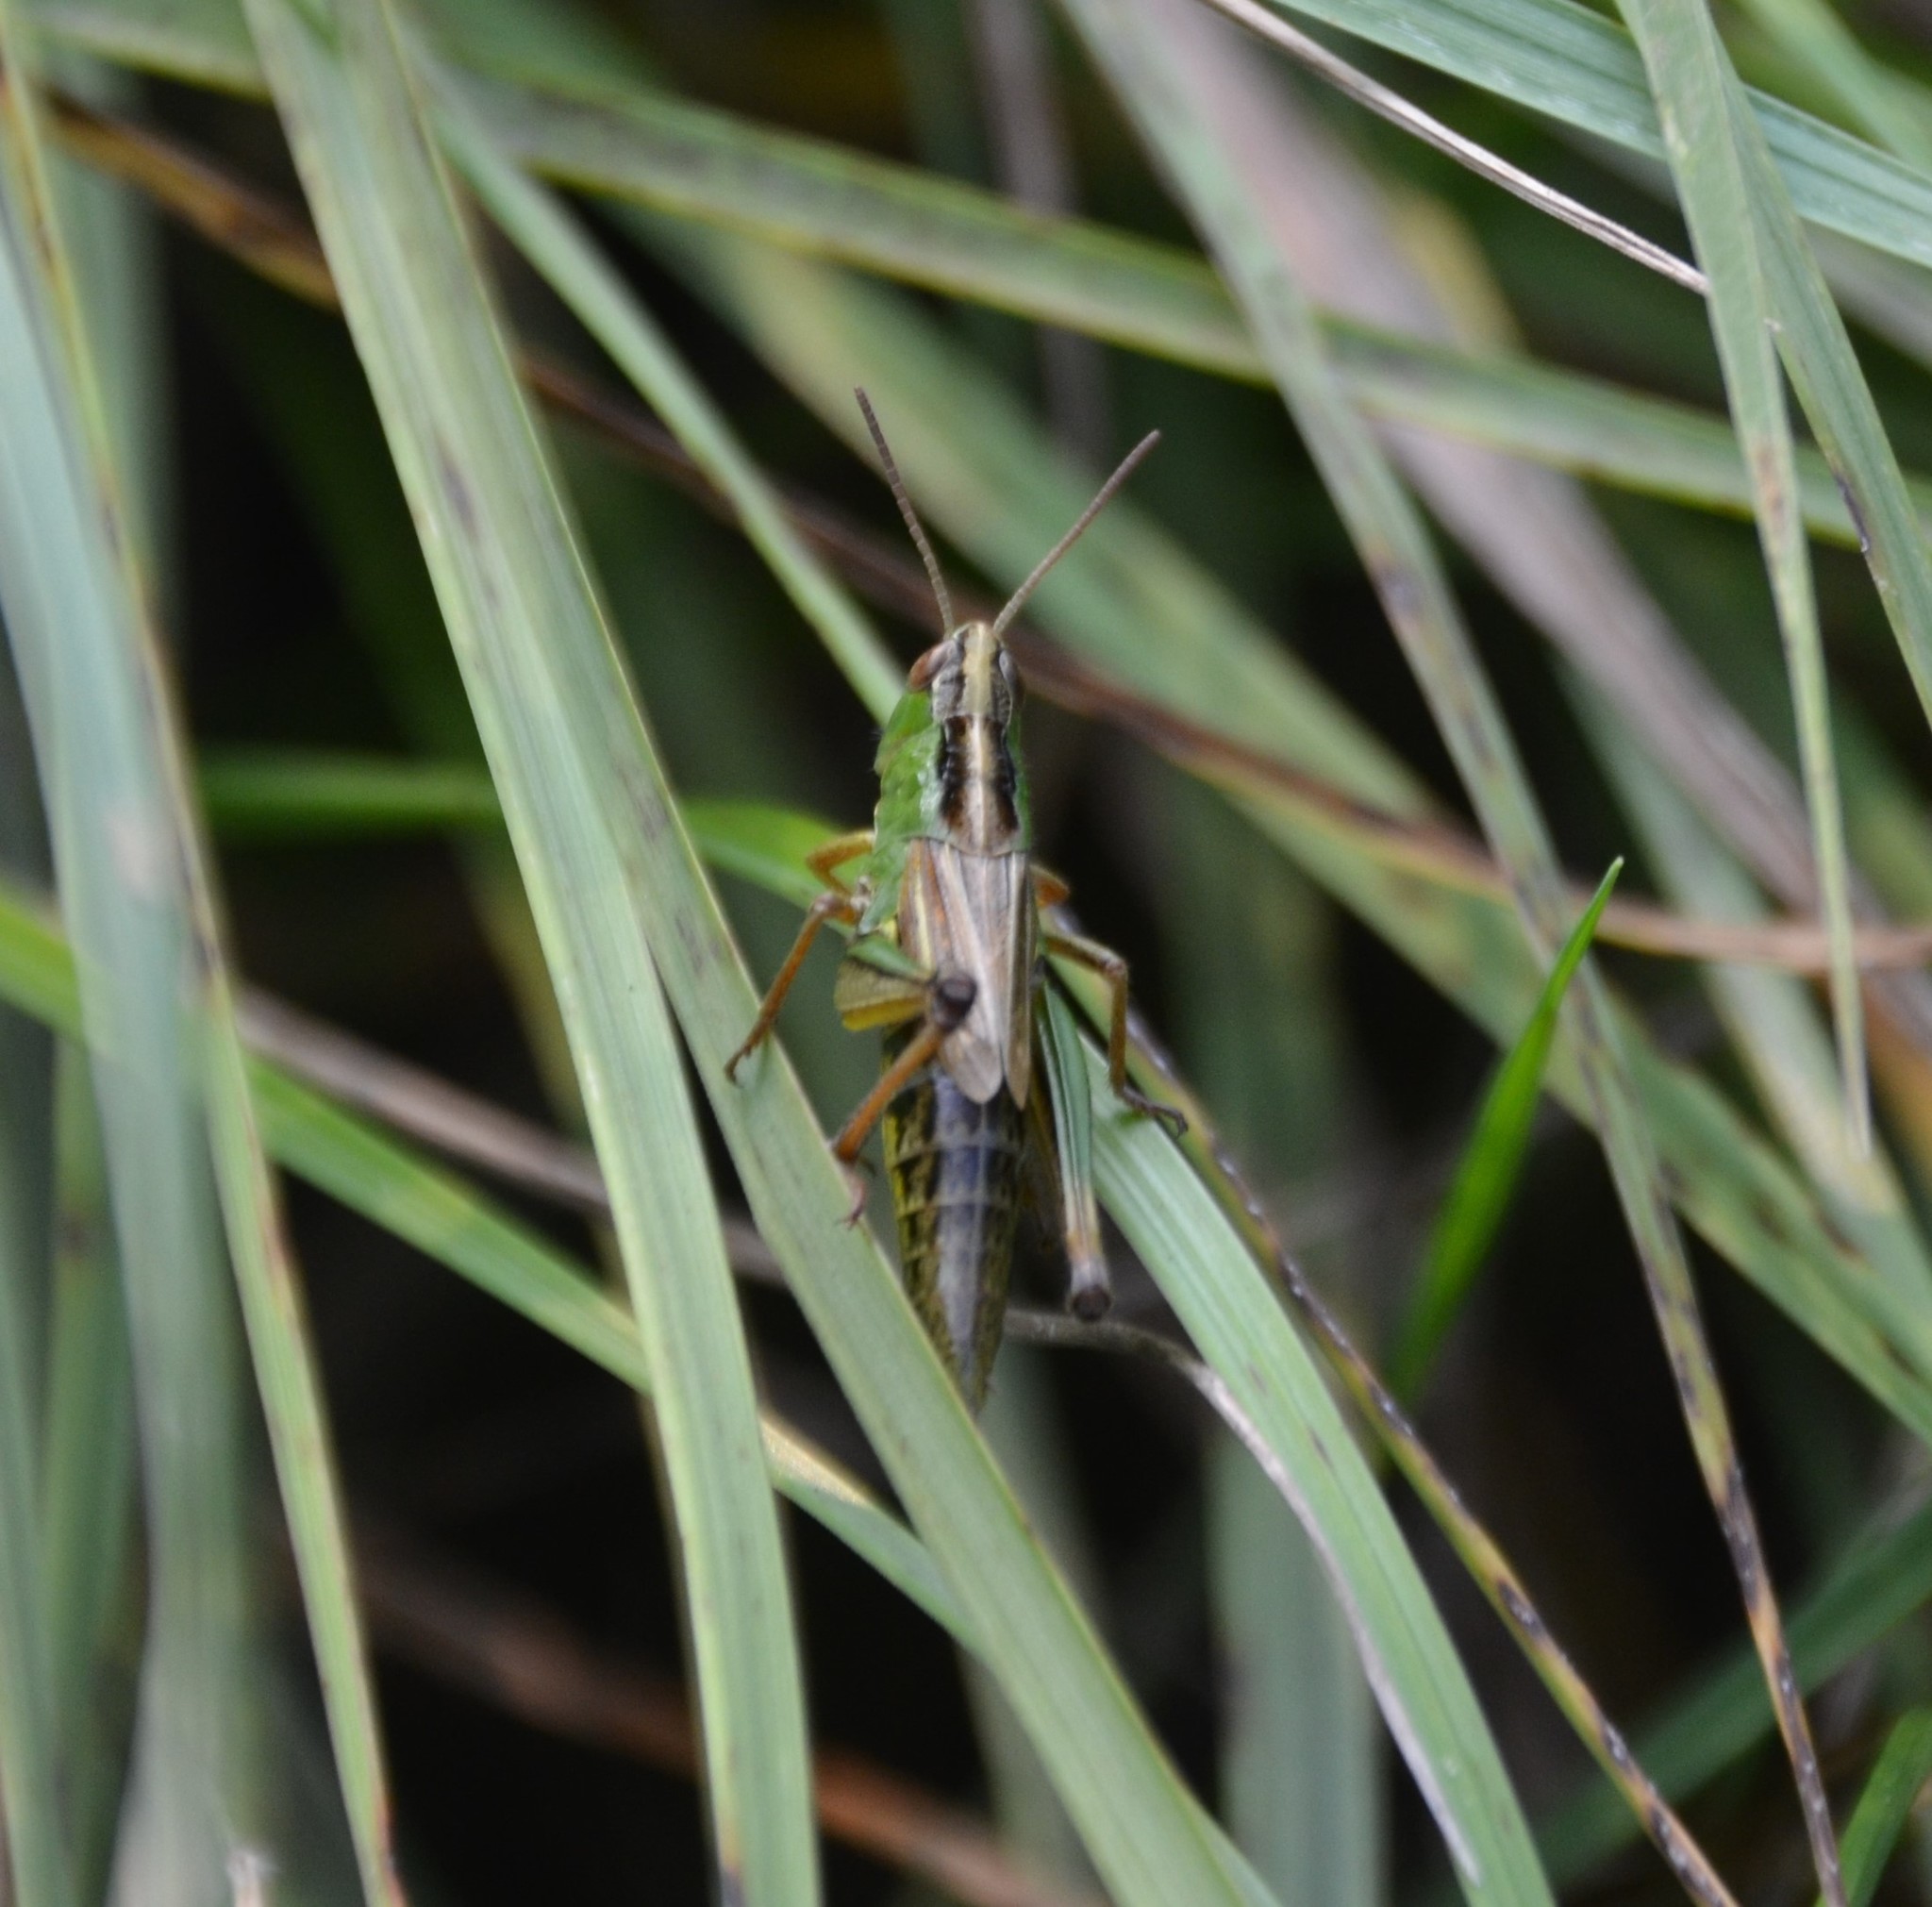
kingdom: Animalia
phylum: Arthropoda
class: Insecta
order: Orthoptera
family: Acrididae
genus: Pseudochorthippus
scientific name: Pseudochorthippus parallelus
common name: Meadow grasshopper
